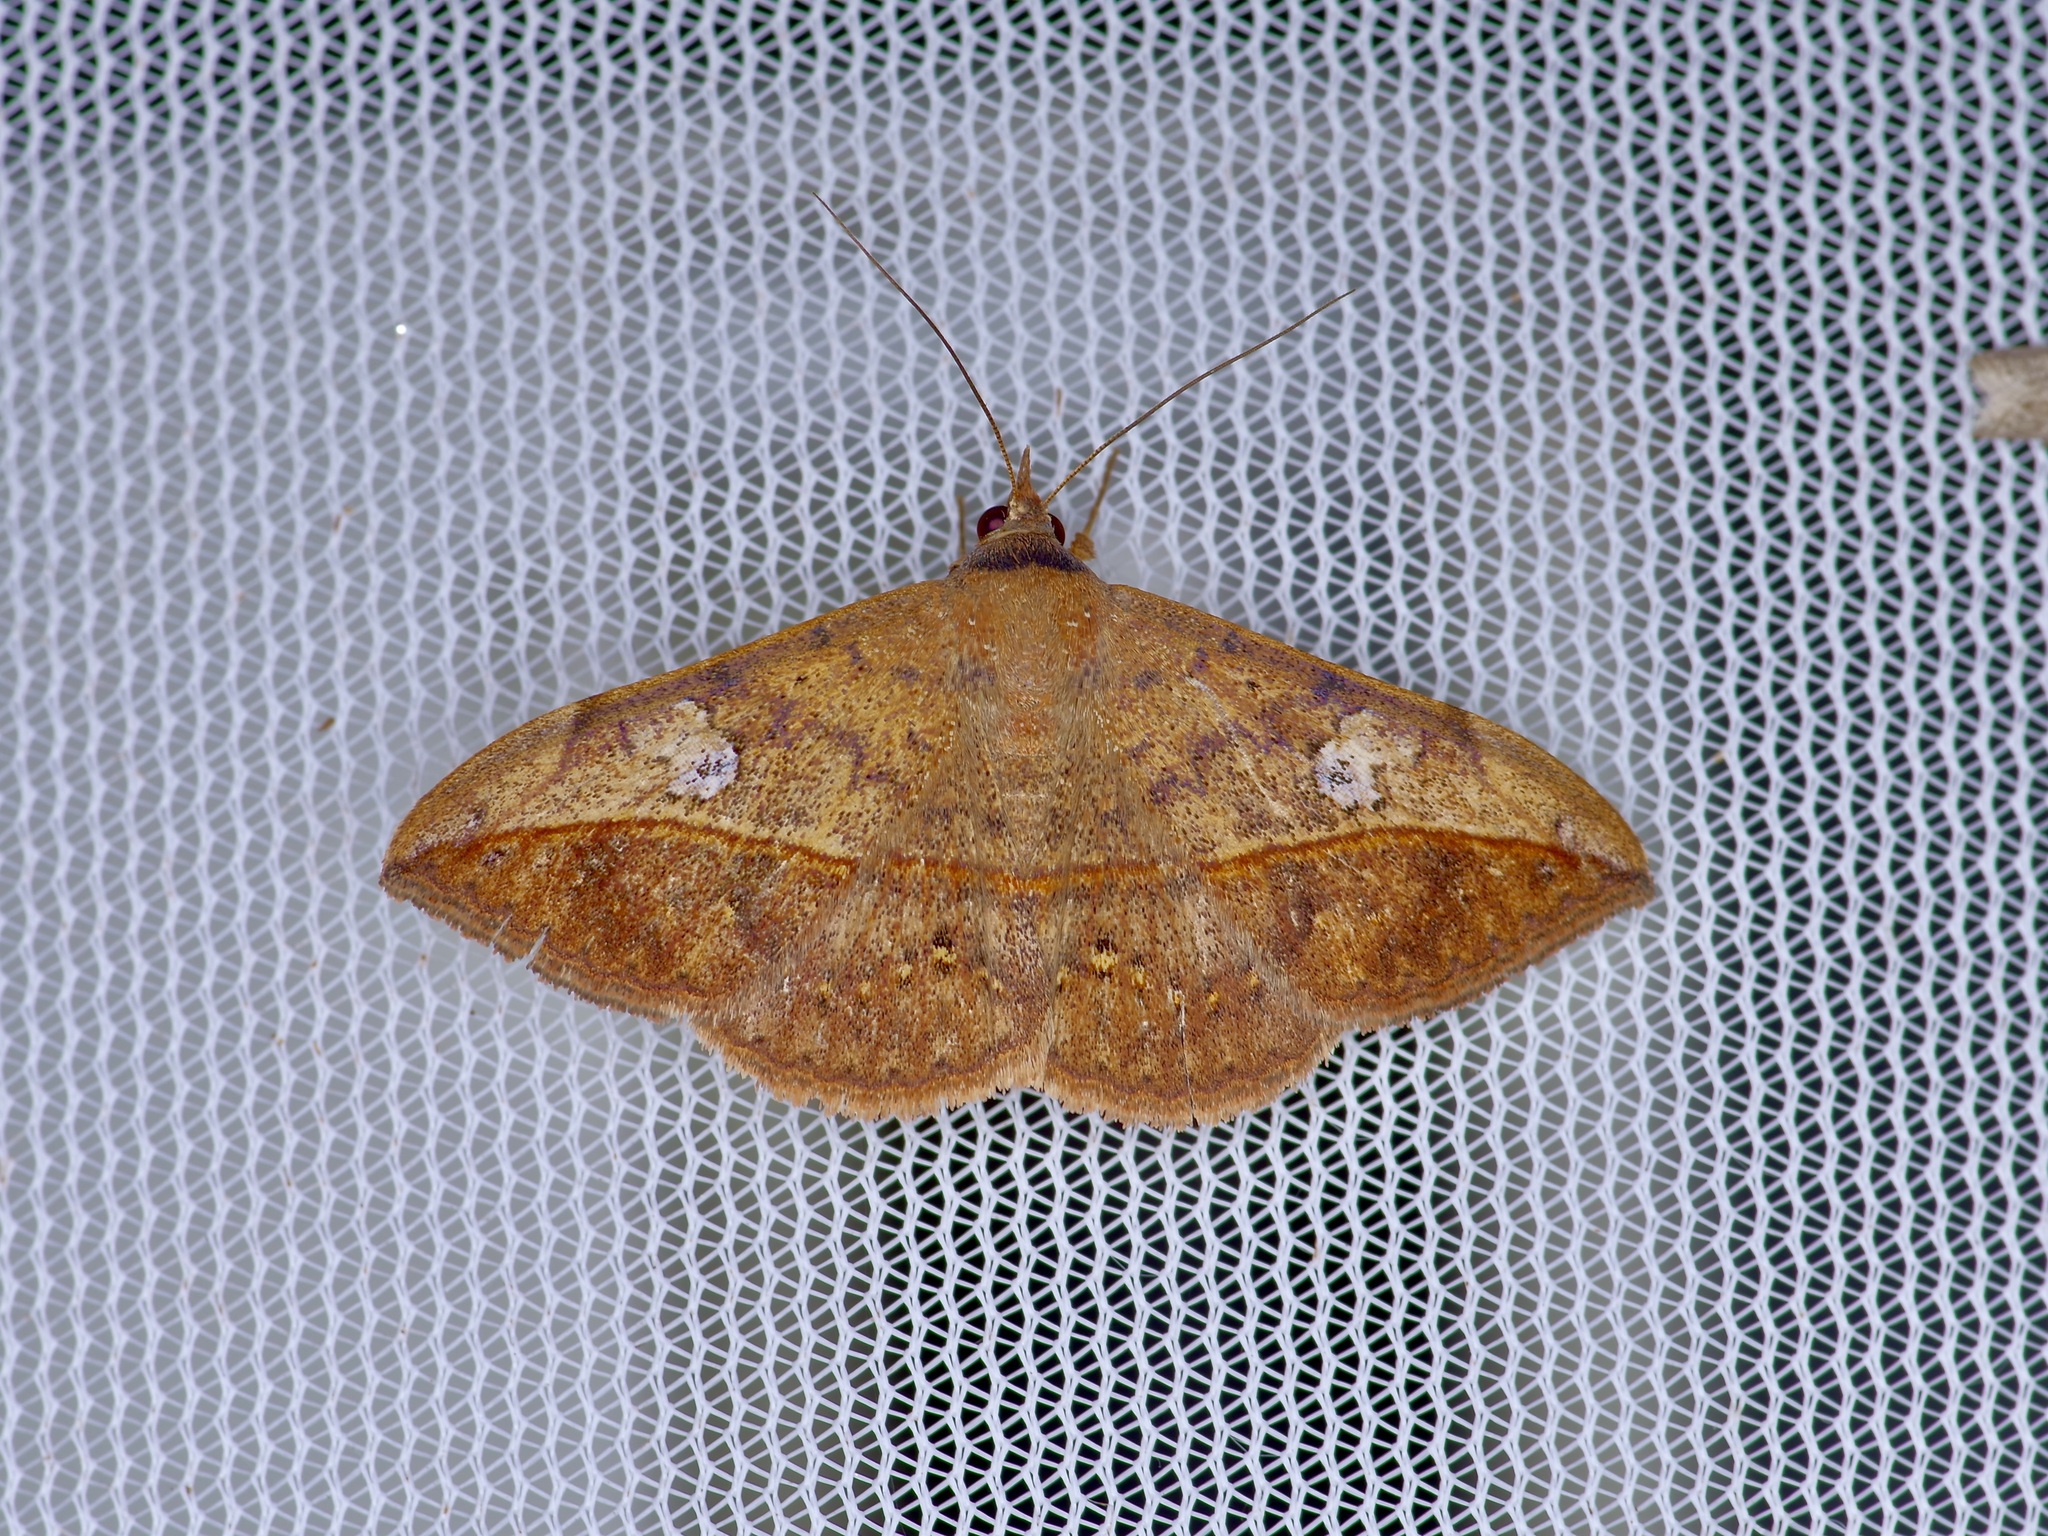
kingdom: Animalia
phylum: Arthropoda
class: Insecta
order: Lepidoptera
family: Erebidae
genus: Anticarsia
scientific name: Anticarsia gemmatalis
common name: Cutworm moth
